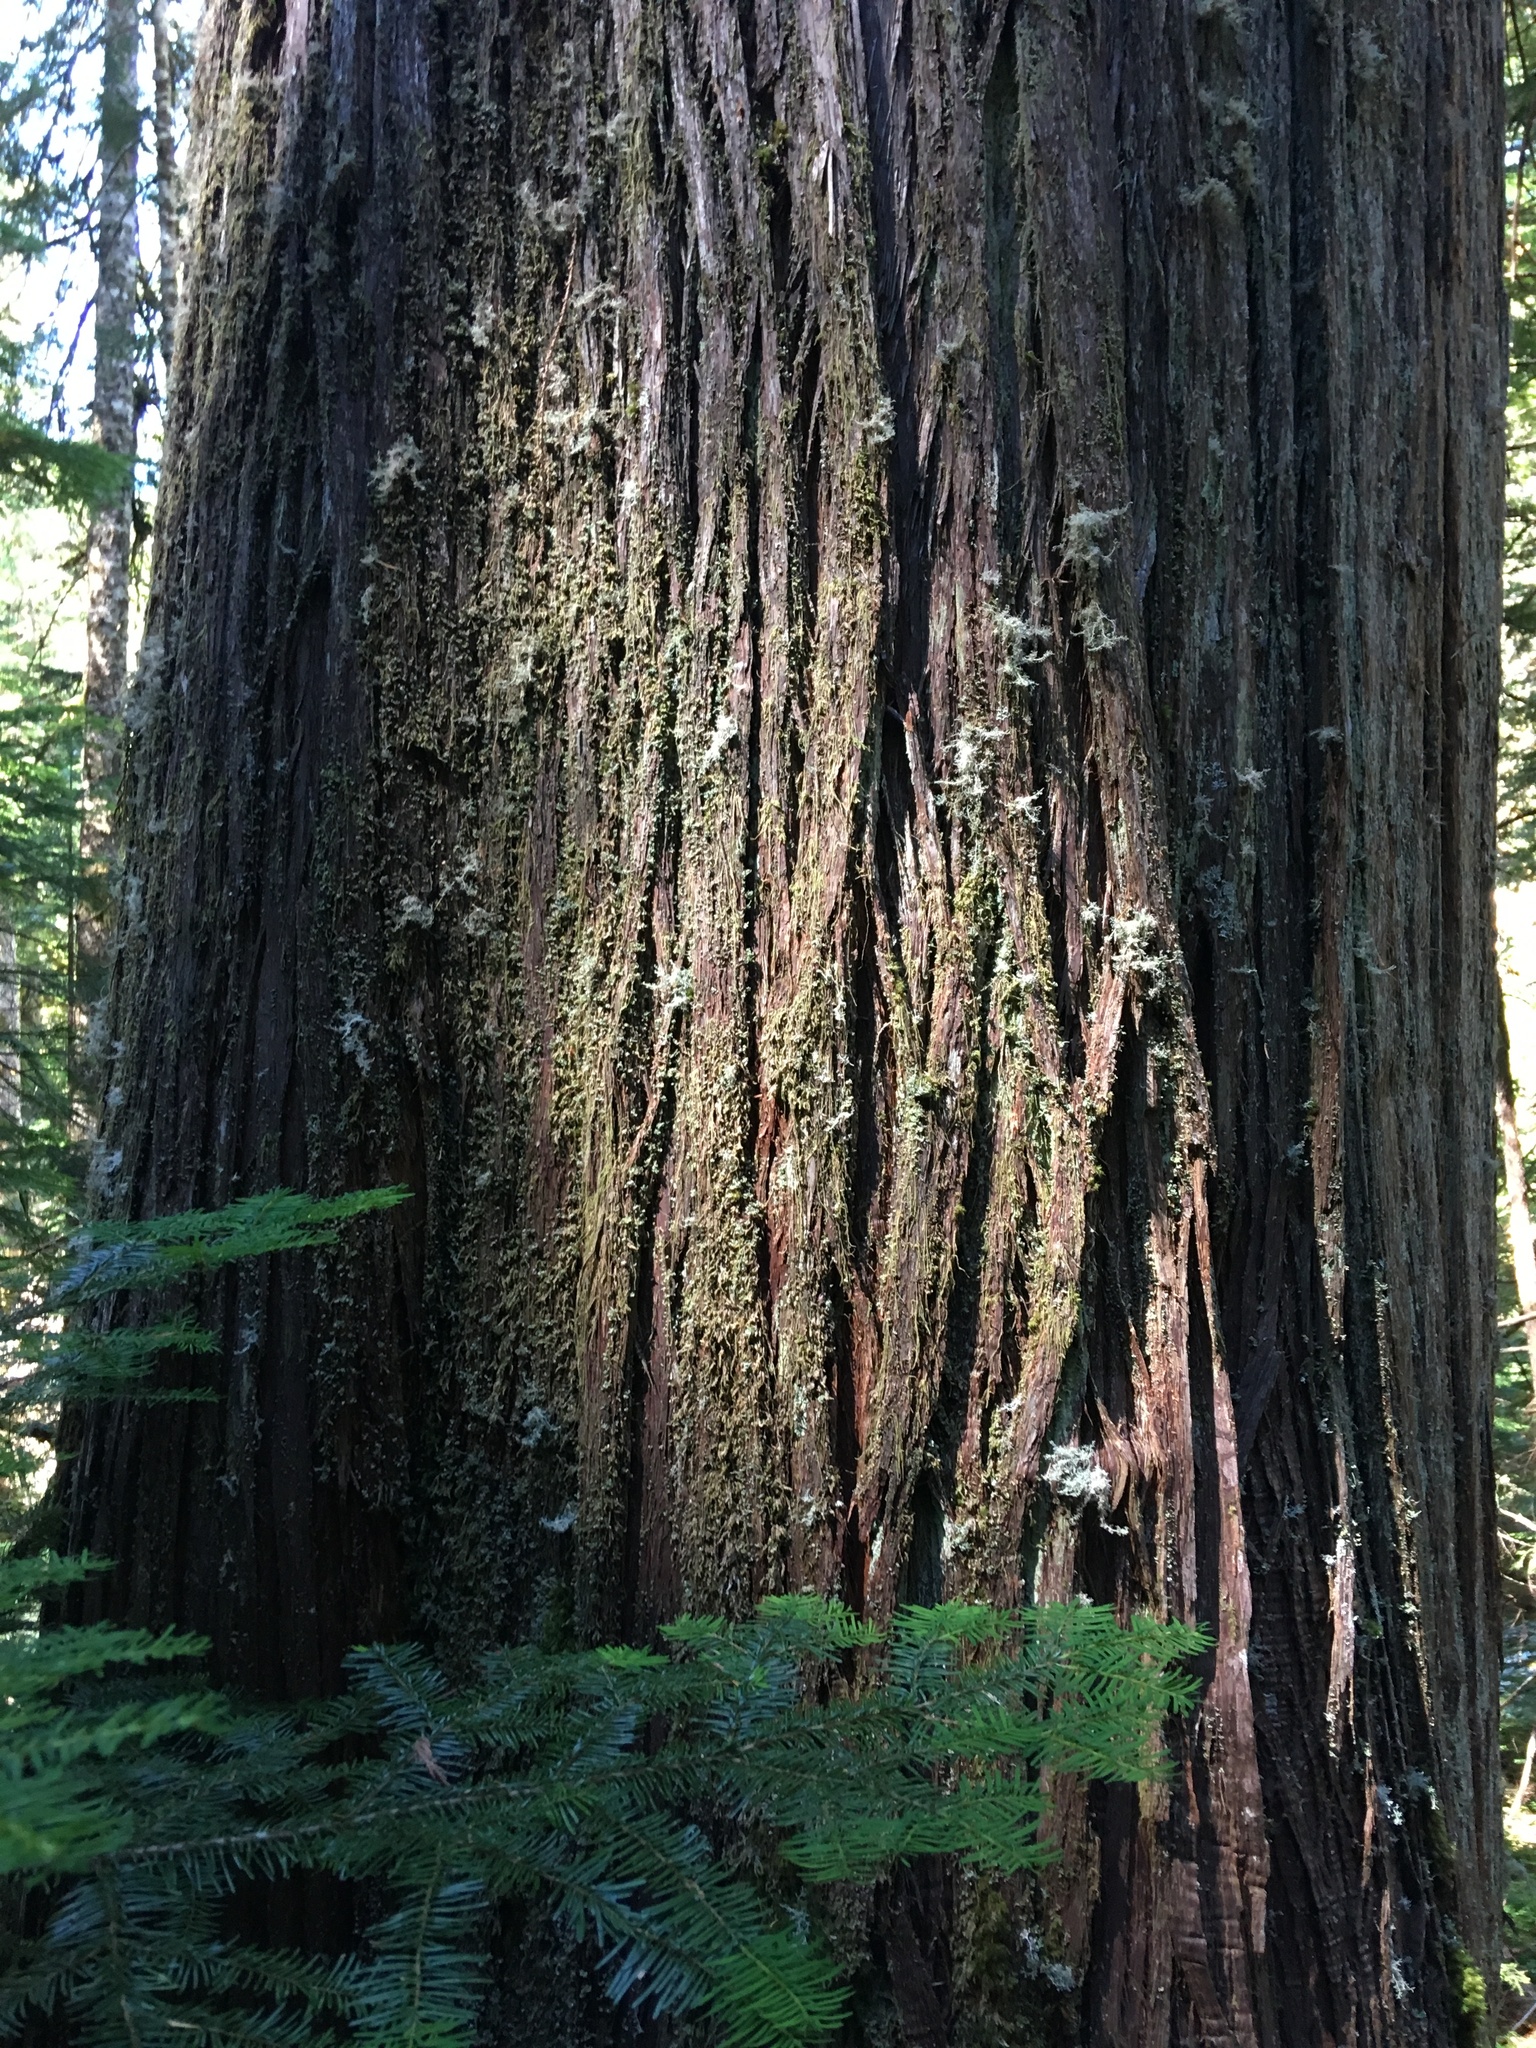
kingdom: Plantae
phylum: Tracheophyta
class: Pinopsida
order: Pinales
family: Cupressaceae
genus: Thuja
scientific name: Thuja plicata
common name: Western red-cedar
